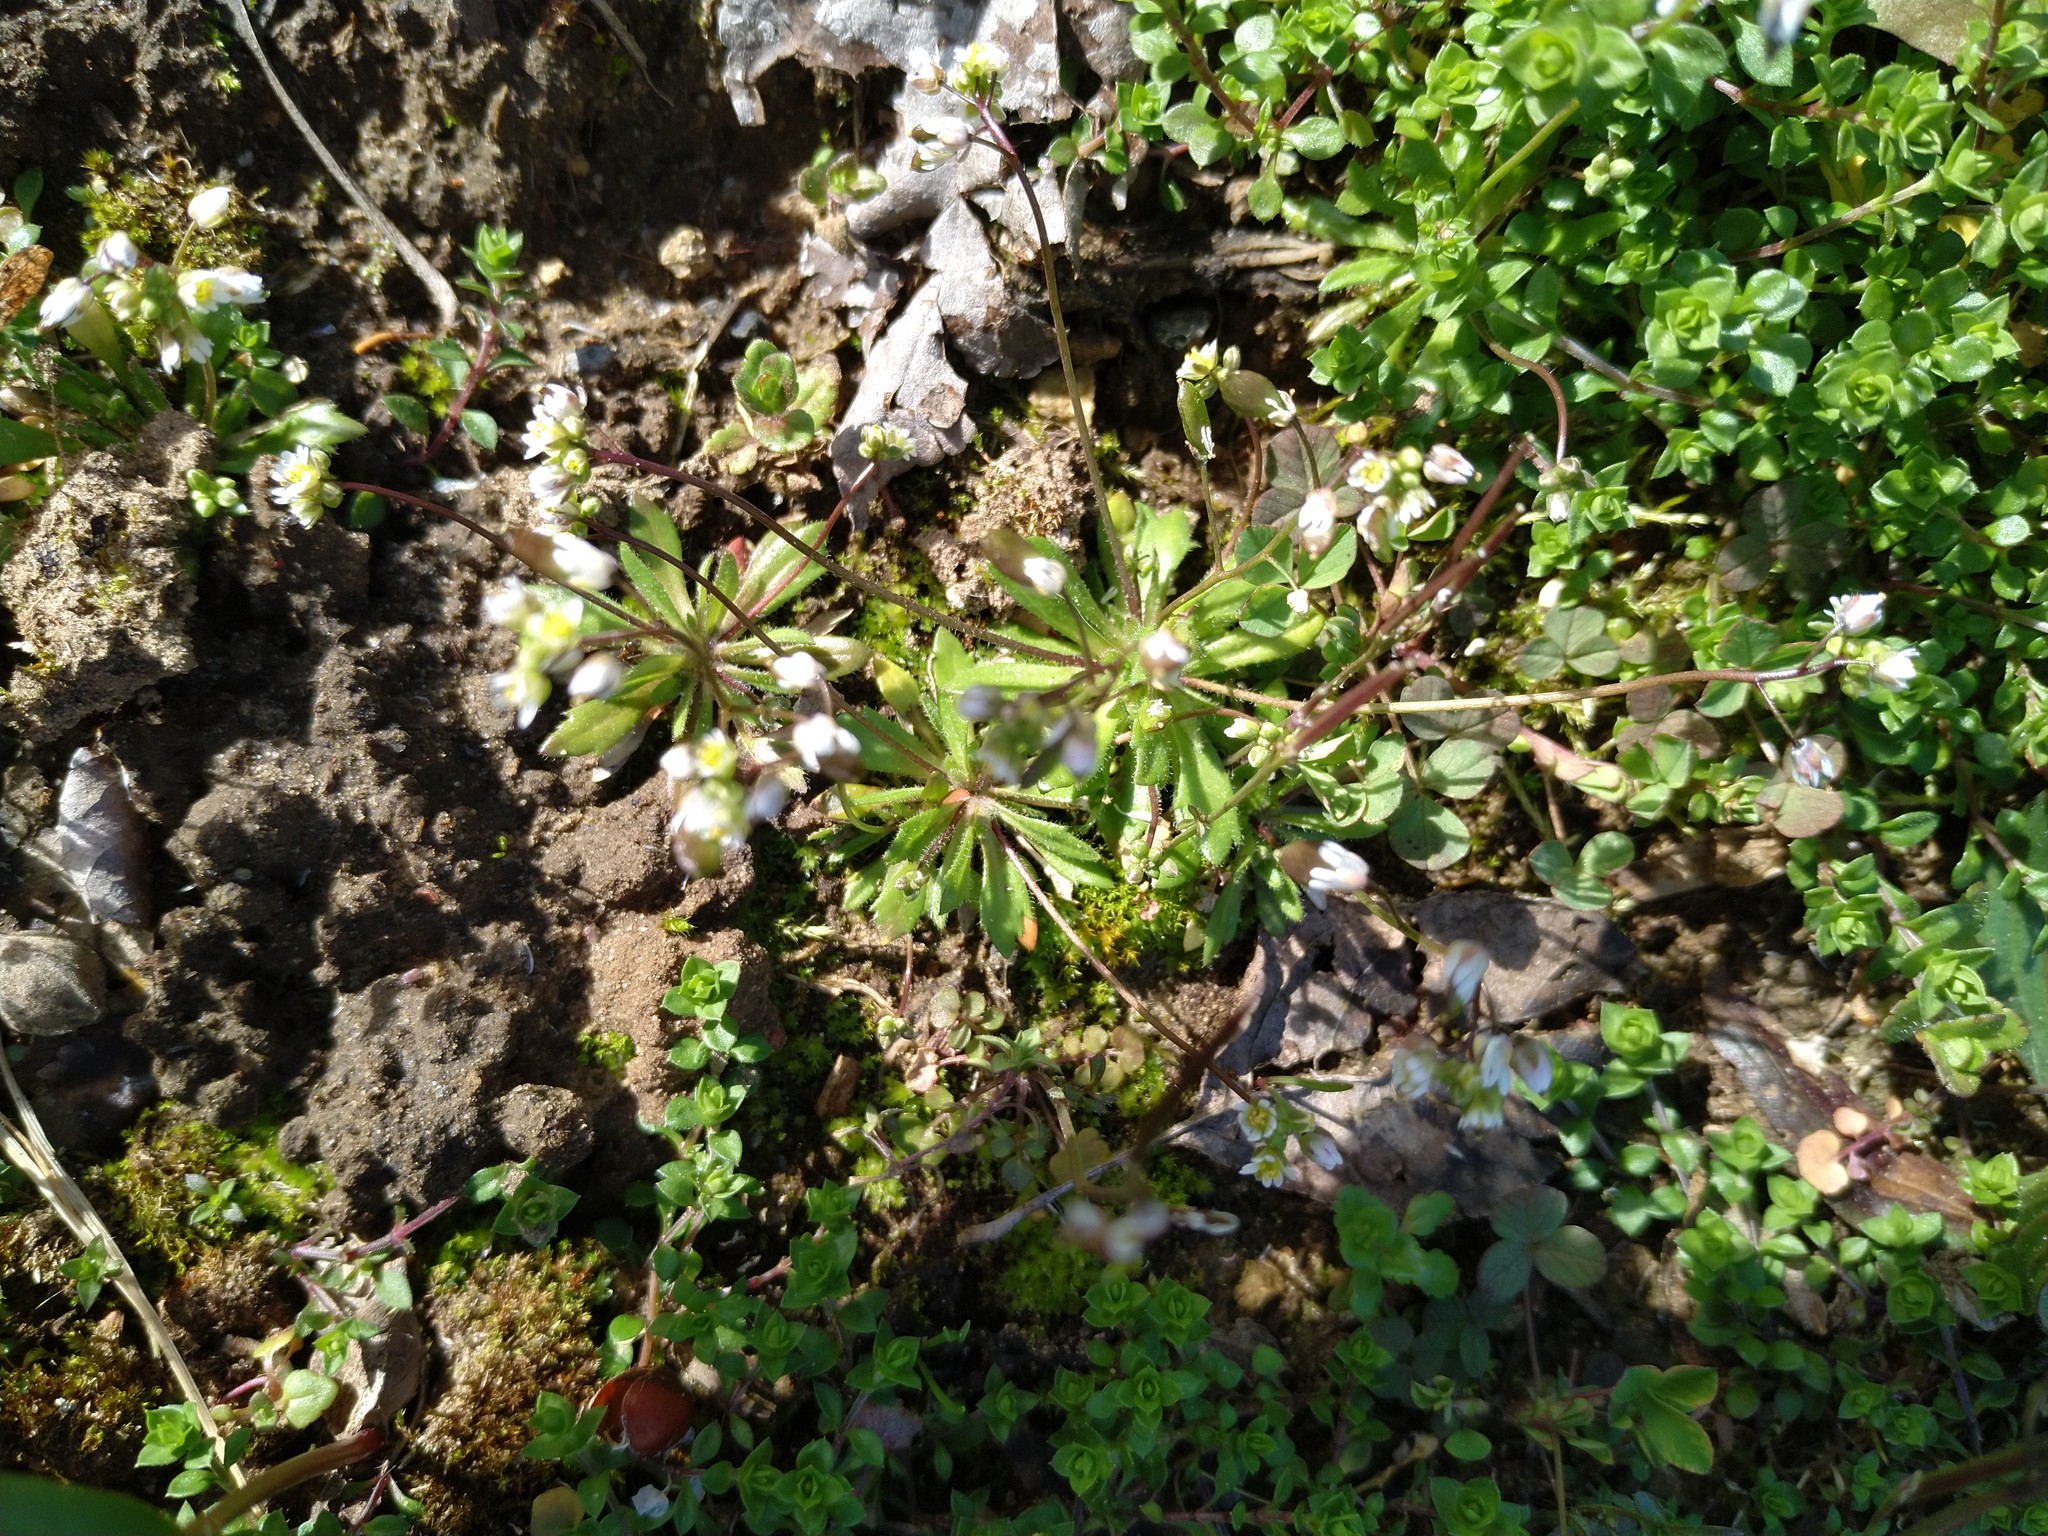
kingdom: Plantae
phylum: Tracheophyta
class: Magnoliopsida
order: Brassicales
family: Brassicaceae
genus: Draba
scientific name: Draba verna
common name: Spring draba
